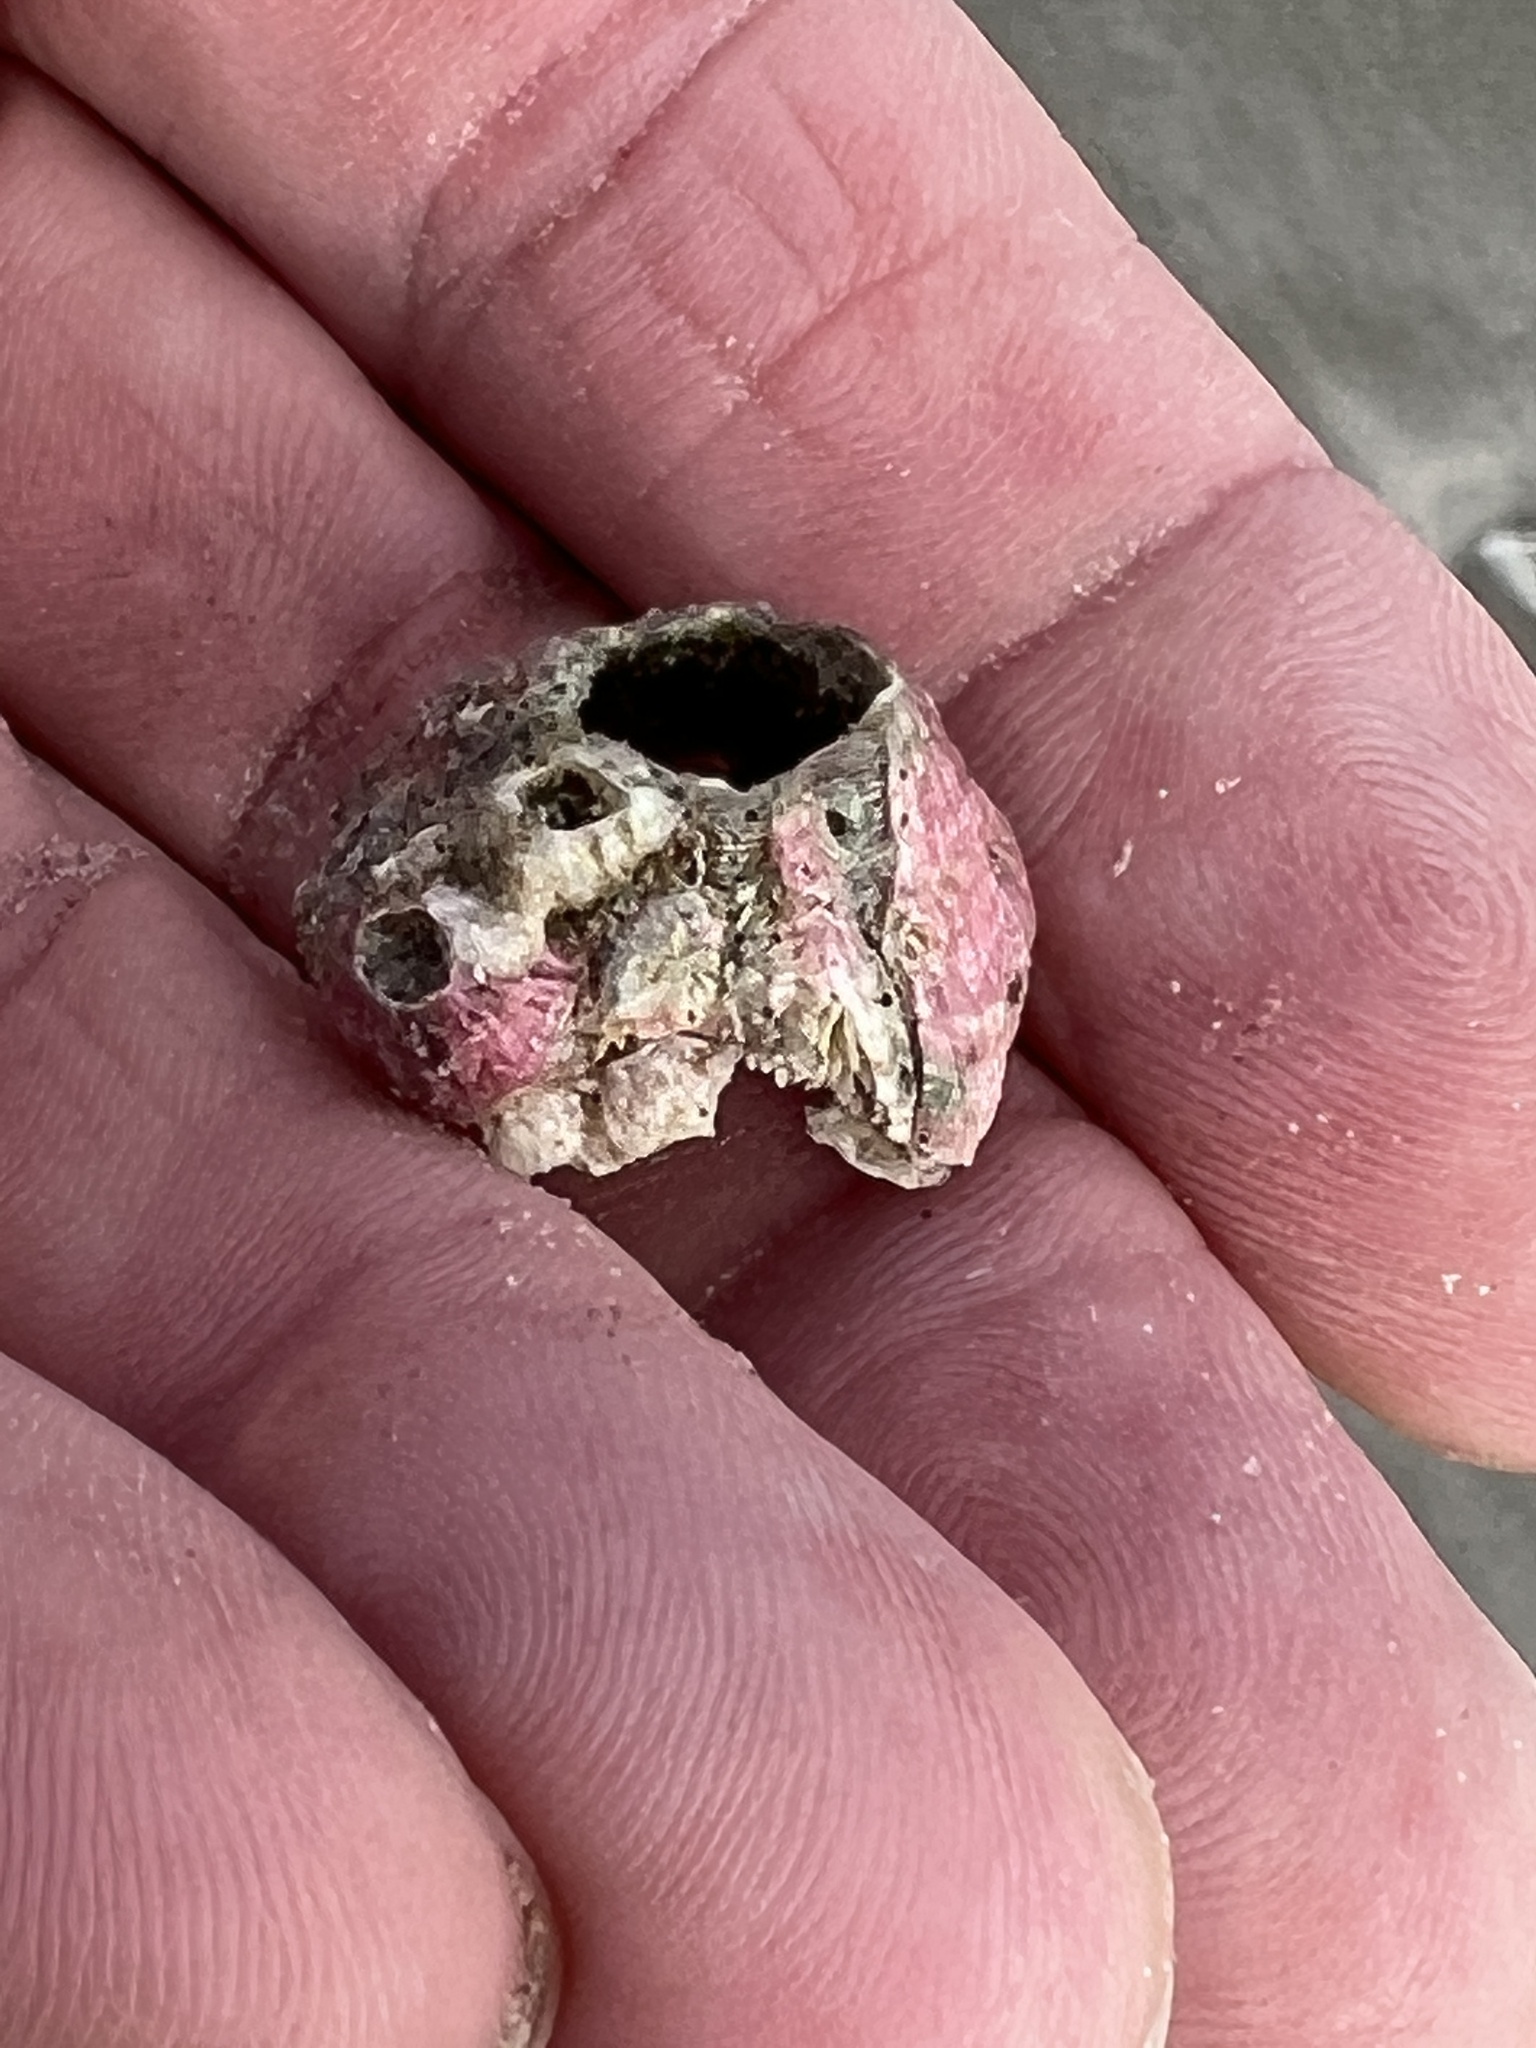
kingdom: Animalia
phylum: Arthropoda
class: Maxillopoda
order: Sessilia
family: Balanidae
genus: Megabalanus
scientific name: Megabalanus tintinnabulum
